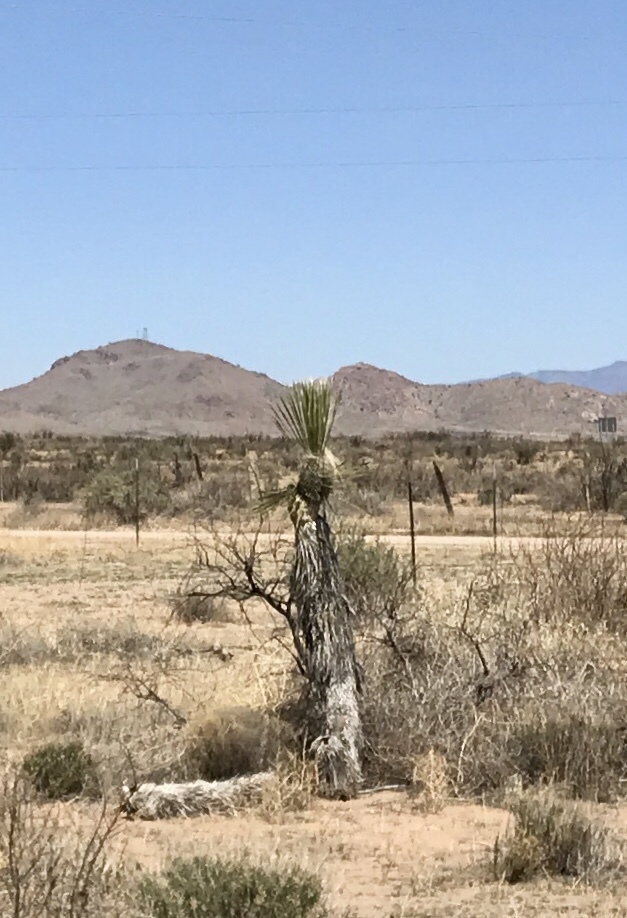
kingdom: Plantae
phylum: Tracheophyta
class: Liliopsida
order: Asparagales
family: Asparagaceae
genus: Yucca
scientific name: Yucca elata
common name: Palmella
